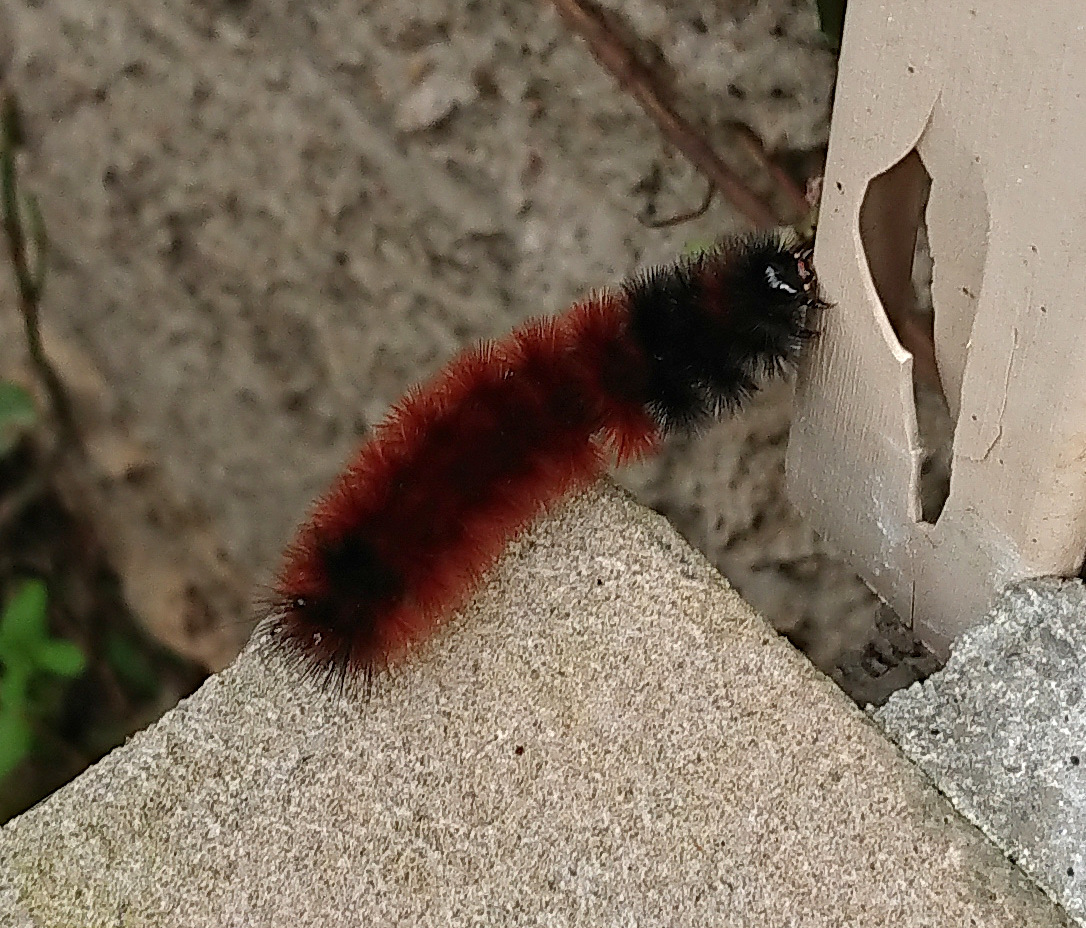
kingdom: Animalia
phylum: Arthropoda
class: Insecta
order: Lepidoptera
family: Erebidae
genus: Pyrrharctia
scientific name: Pyrrharctia isabella
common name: Isabella tiger moth
